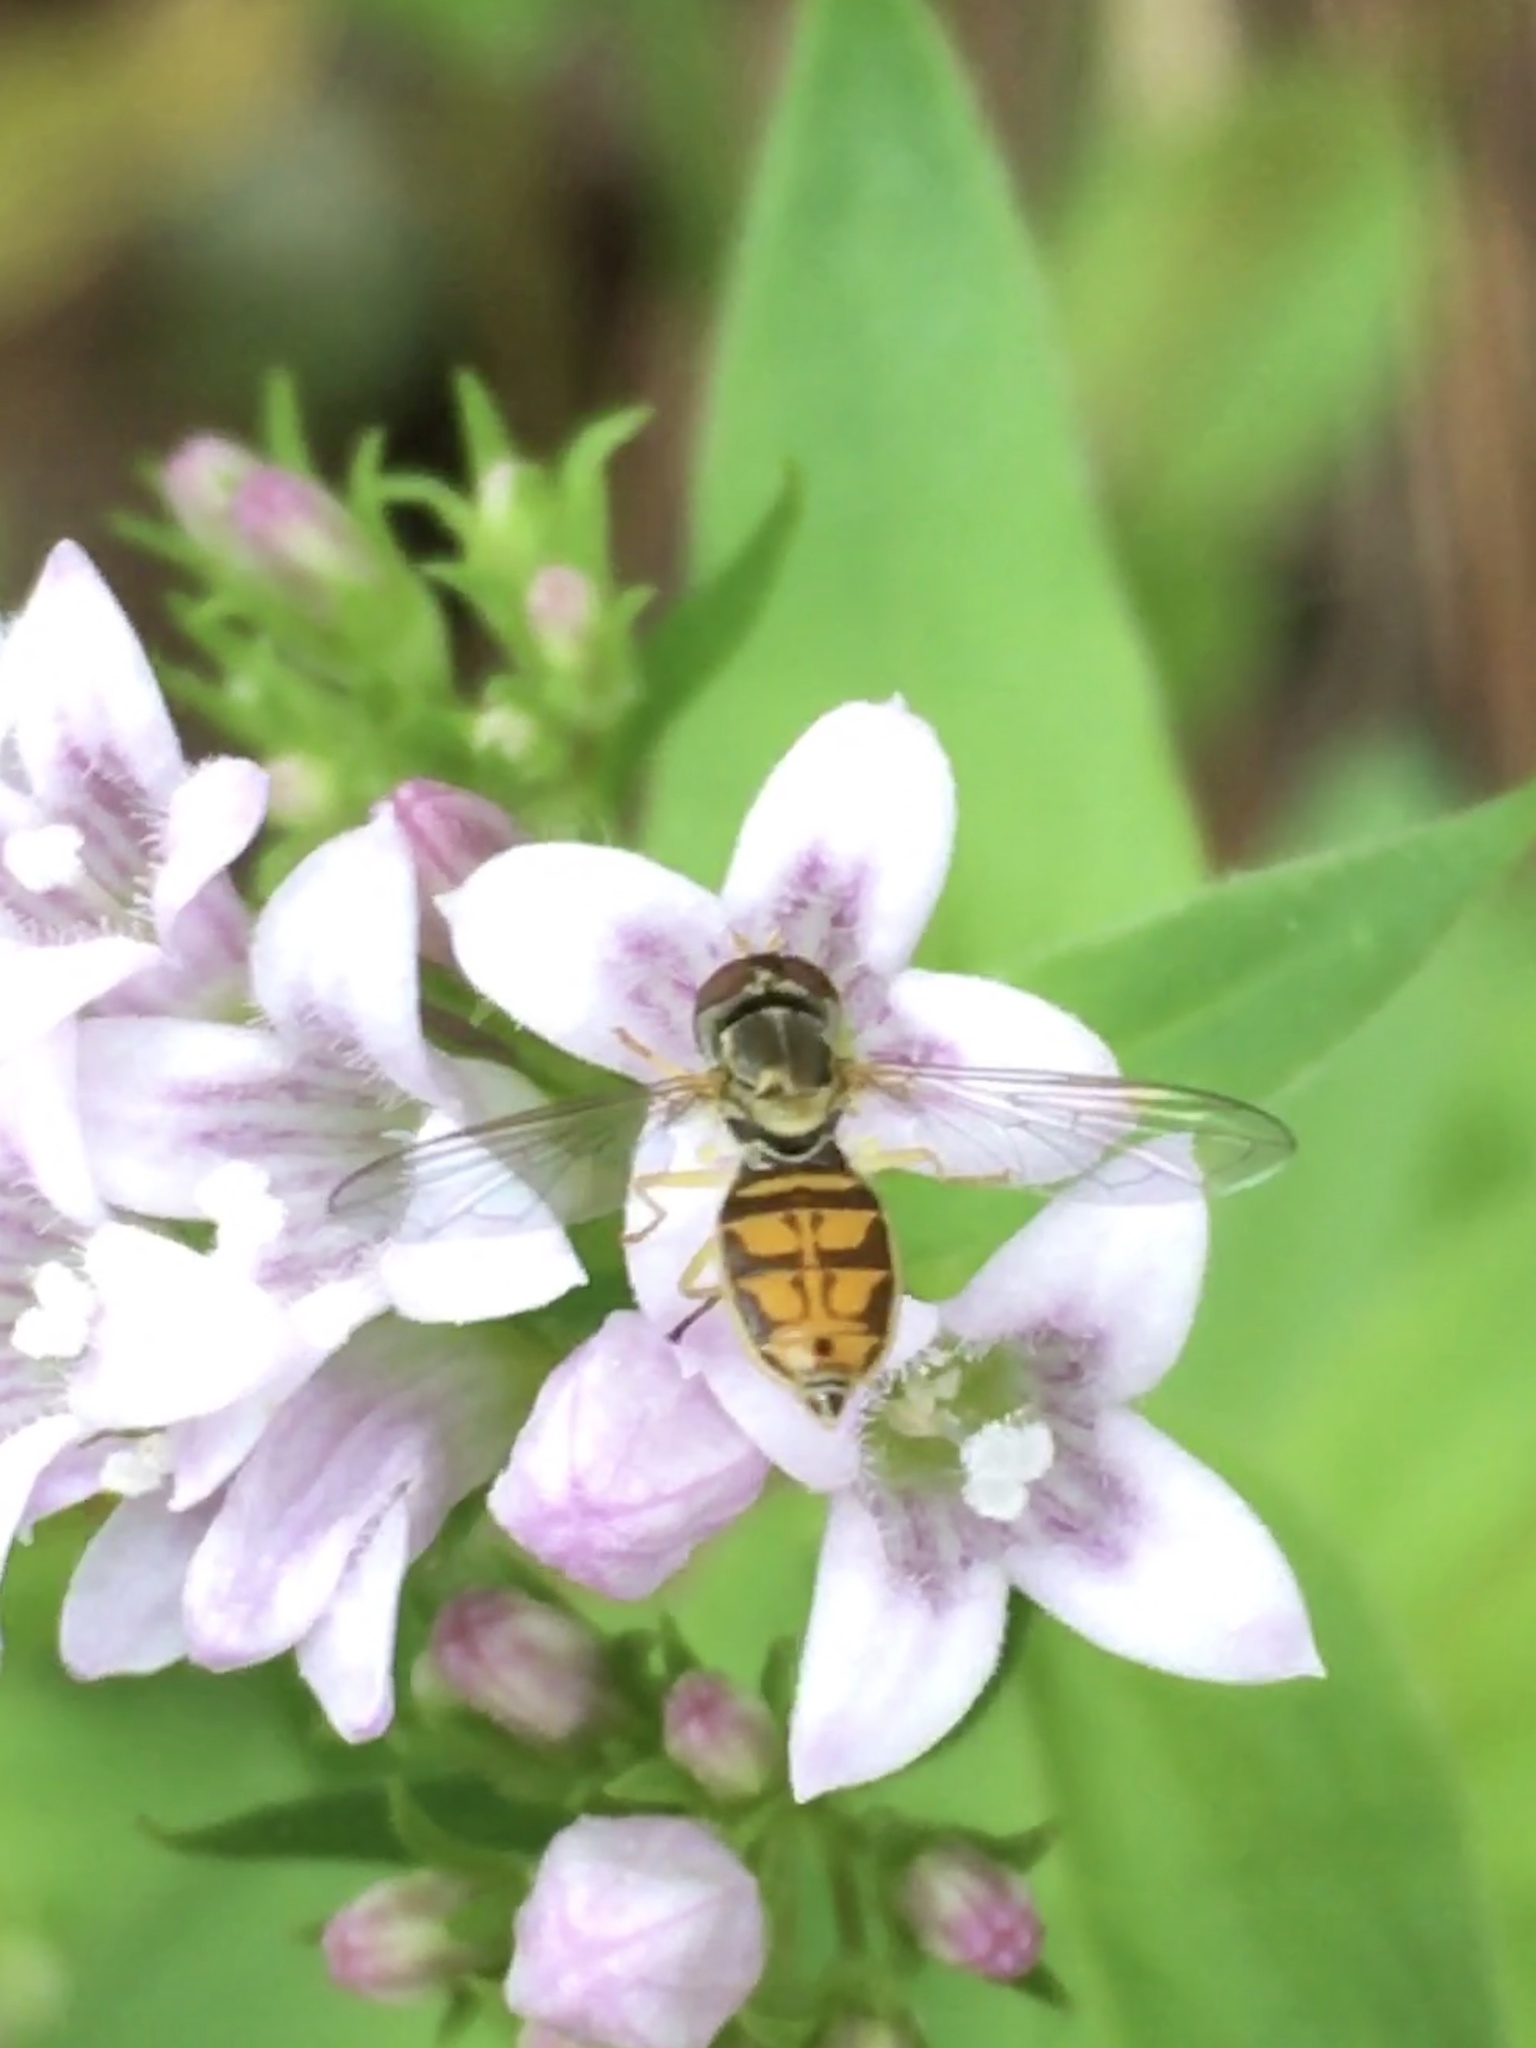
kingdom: Animalia
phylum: Arthropoda
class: Insecta
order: Diptera
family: Syrphidae
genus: Toxomerus
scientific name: Toxomerus marginatus
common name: Syrphid fly
